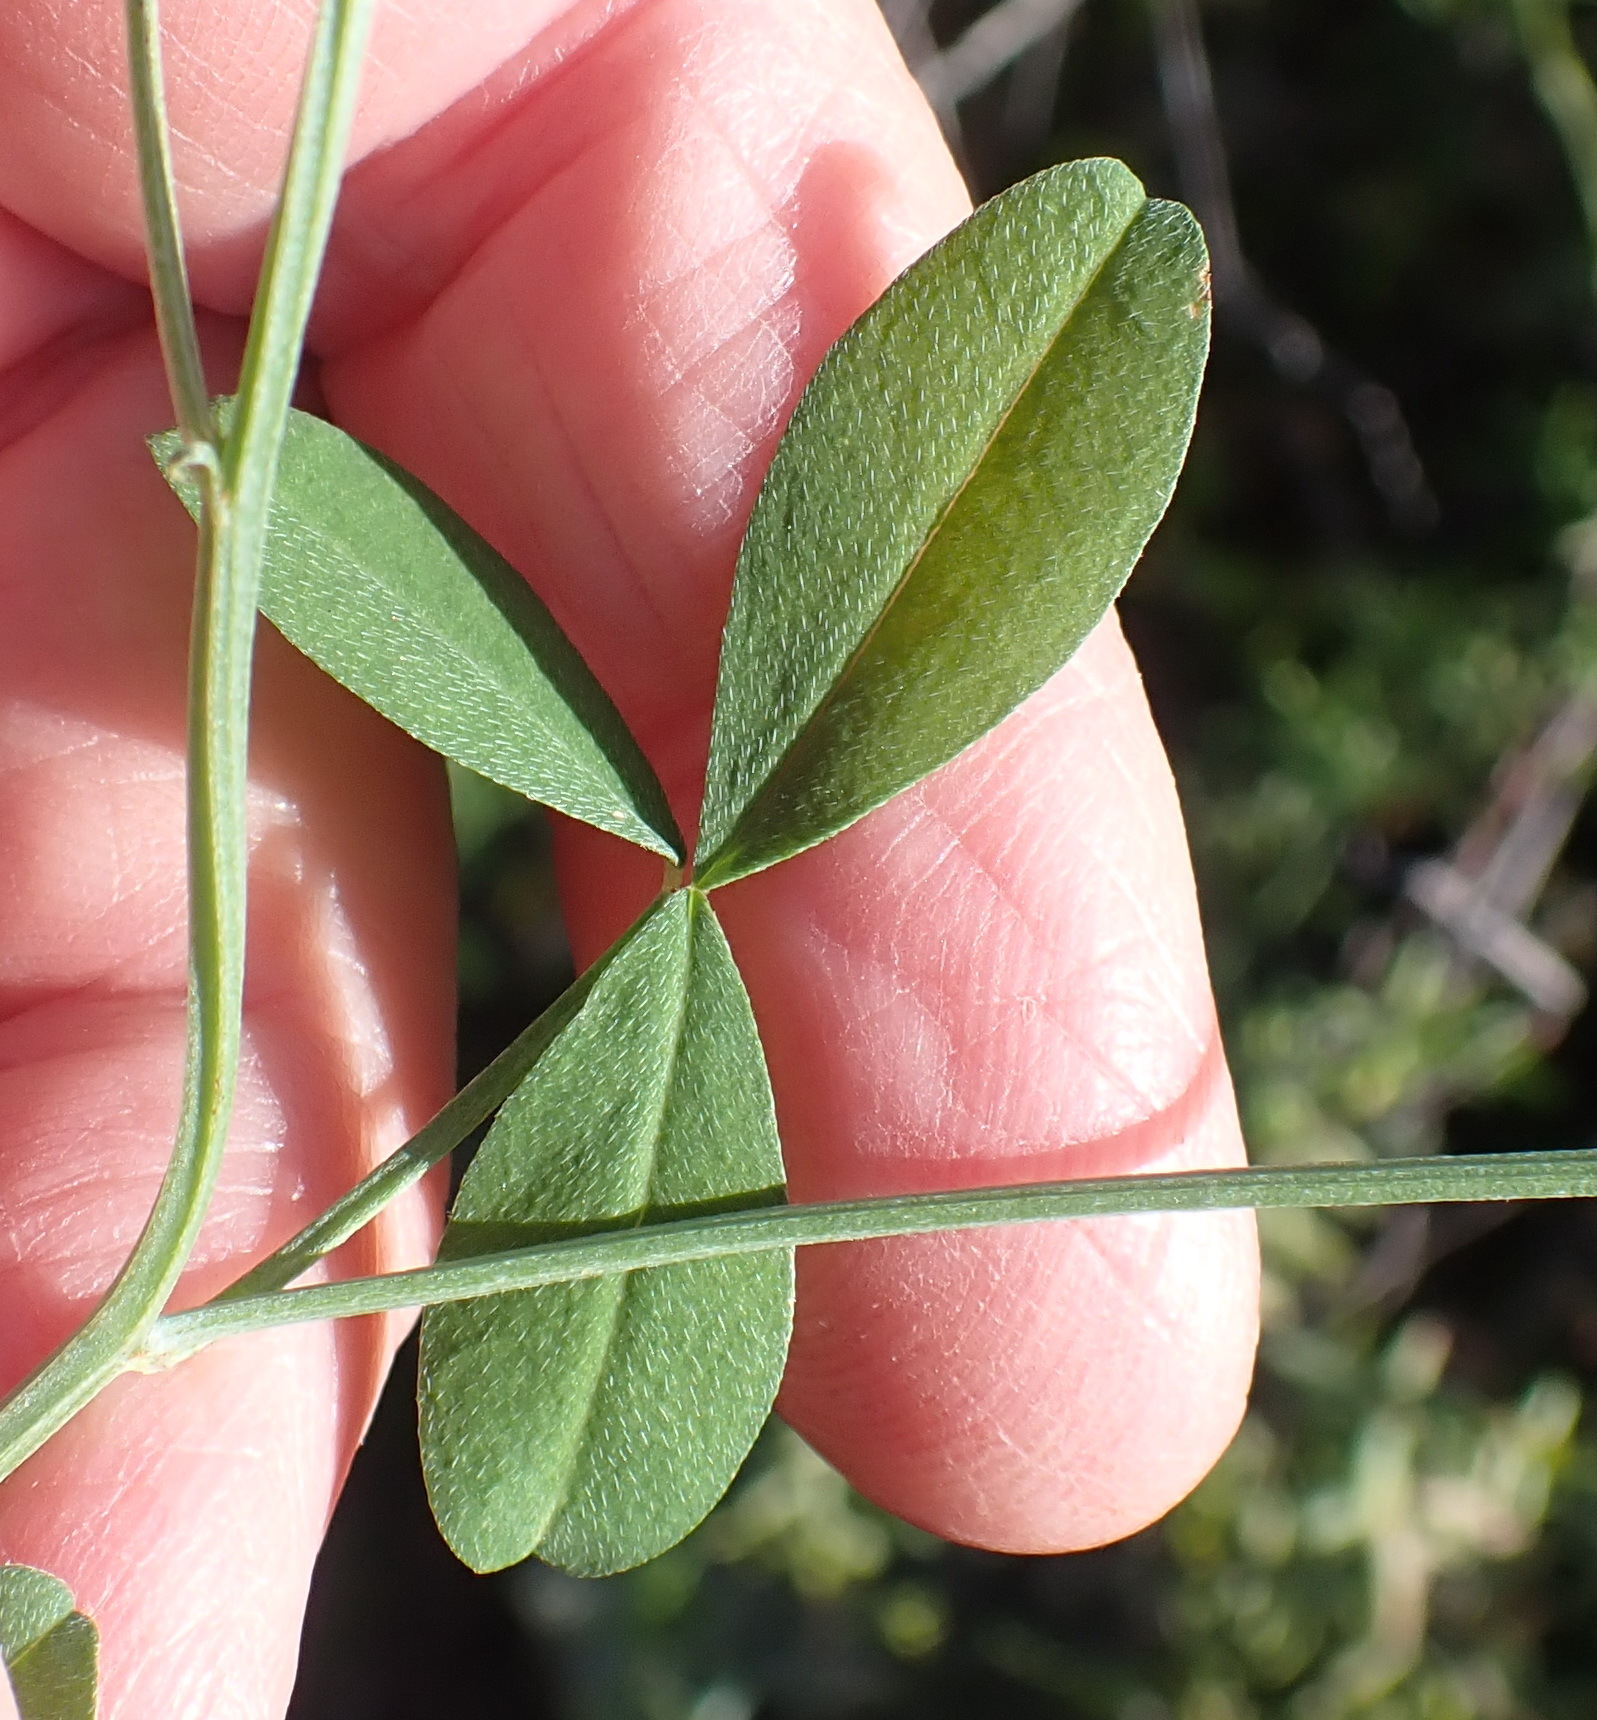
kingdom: Plantae
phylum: Tracheophyta
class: Magnoliopsida
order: Fabales
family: Fabaceae
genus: Indigofera
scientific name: Indigofera complicata
